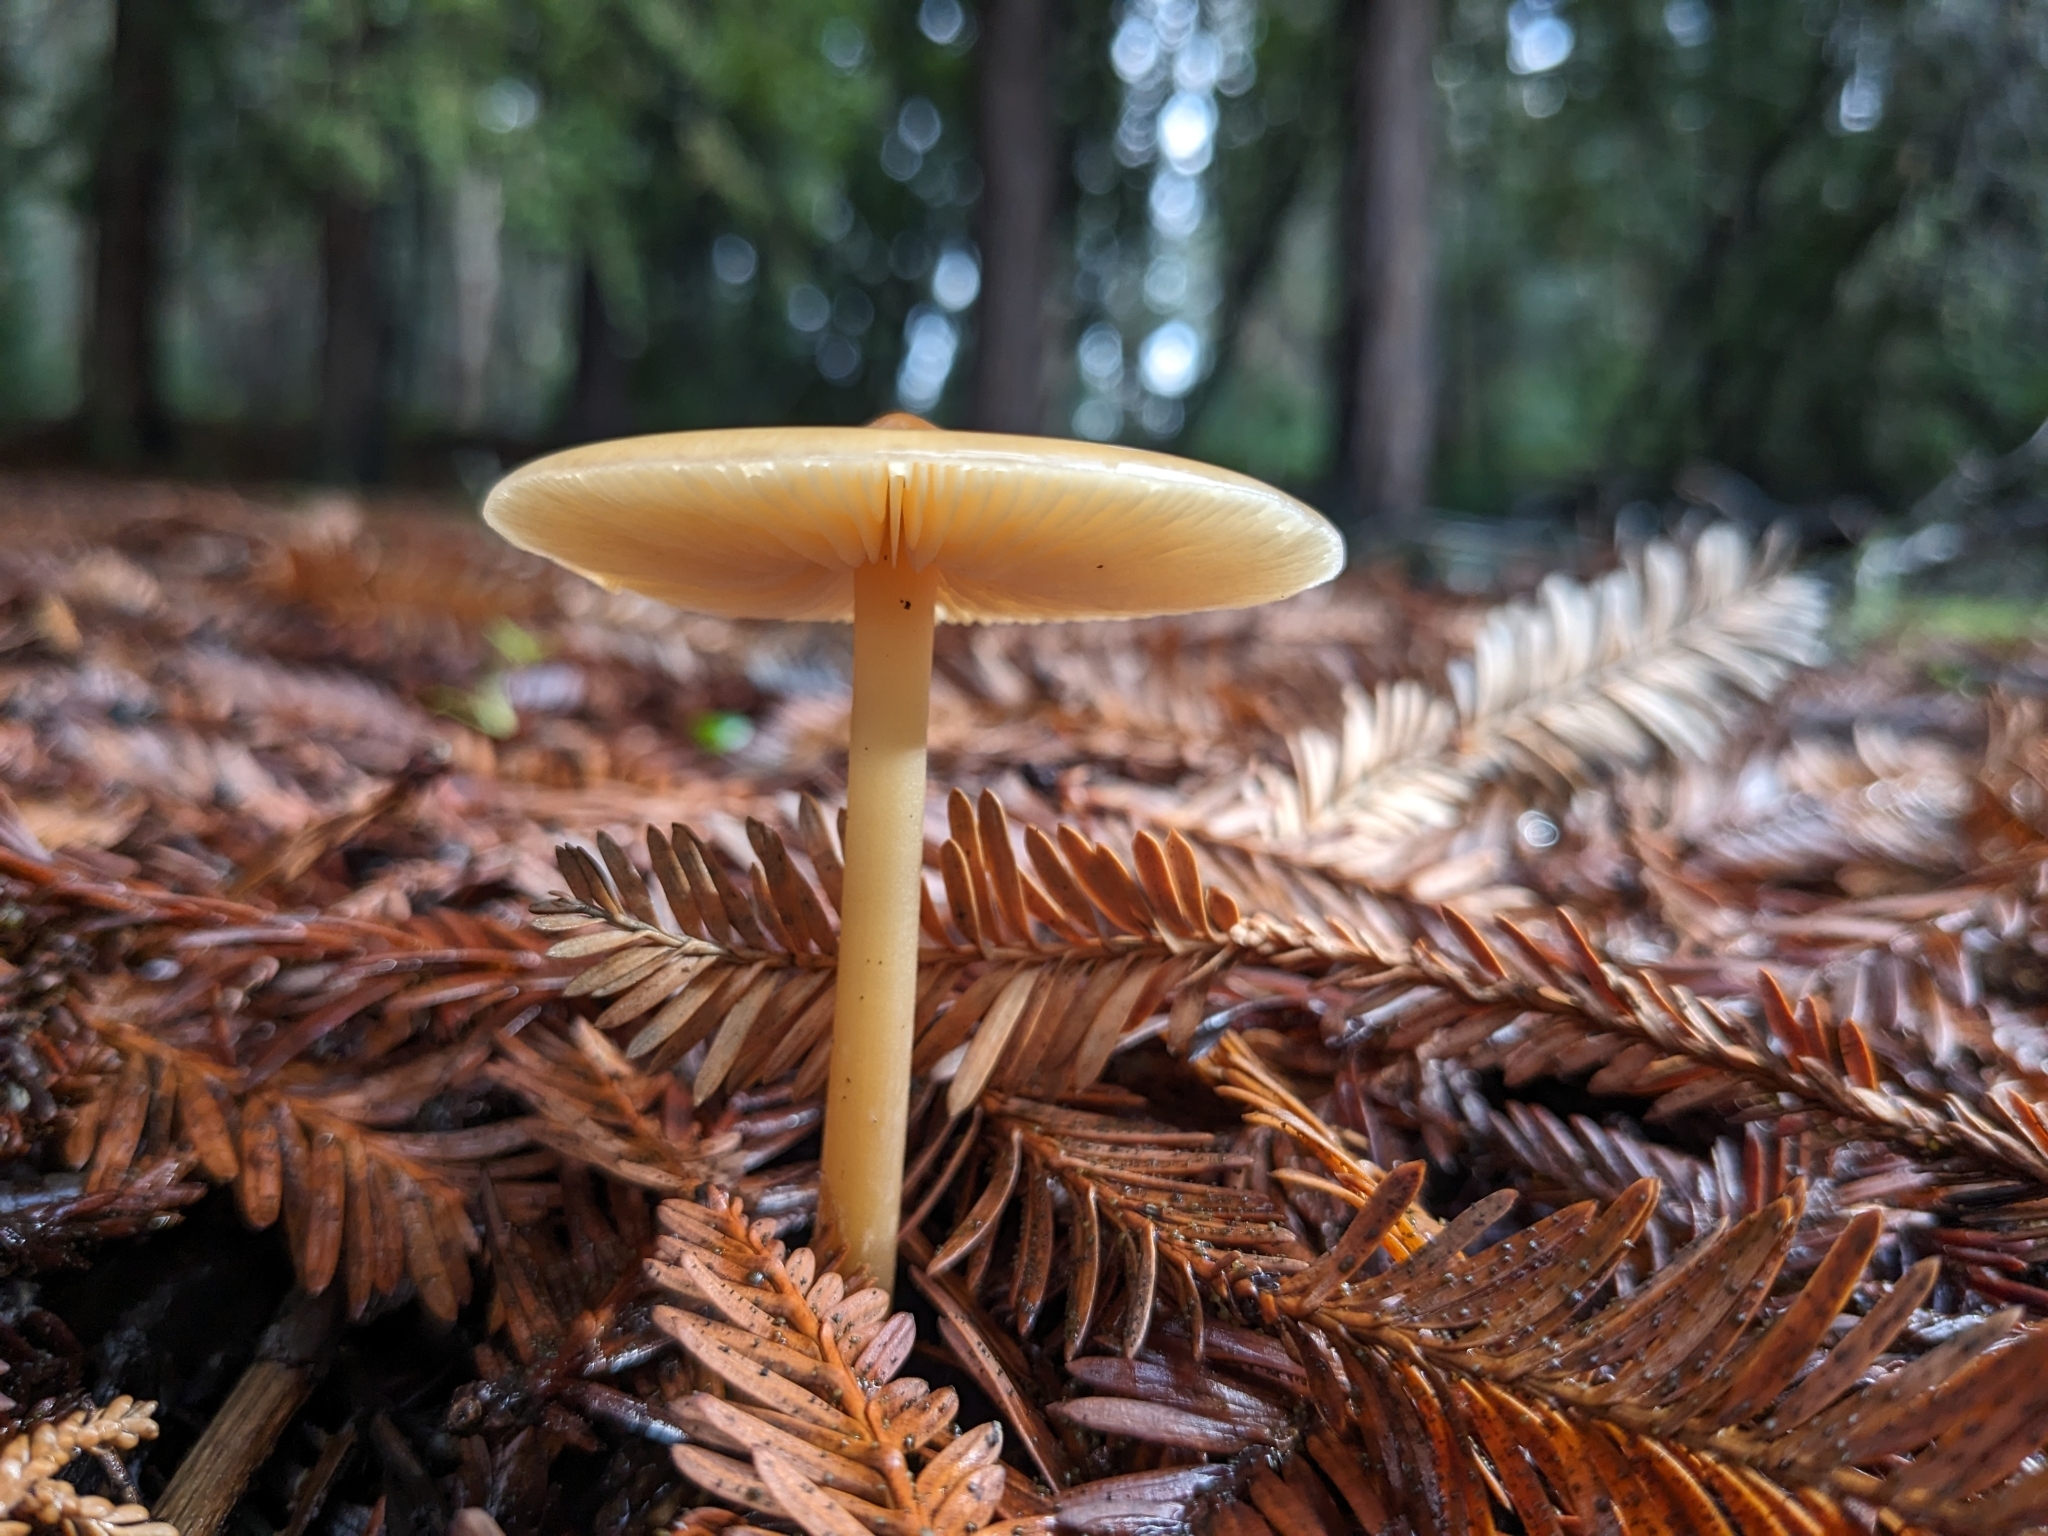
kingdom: Fungi
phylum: Basidiomycota
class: Agaricomycetes
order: Agaricales
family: Tricholomataceae
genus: Caulorhiza
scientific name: Caulorhiza umbonata
